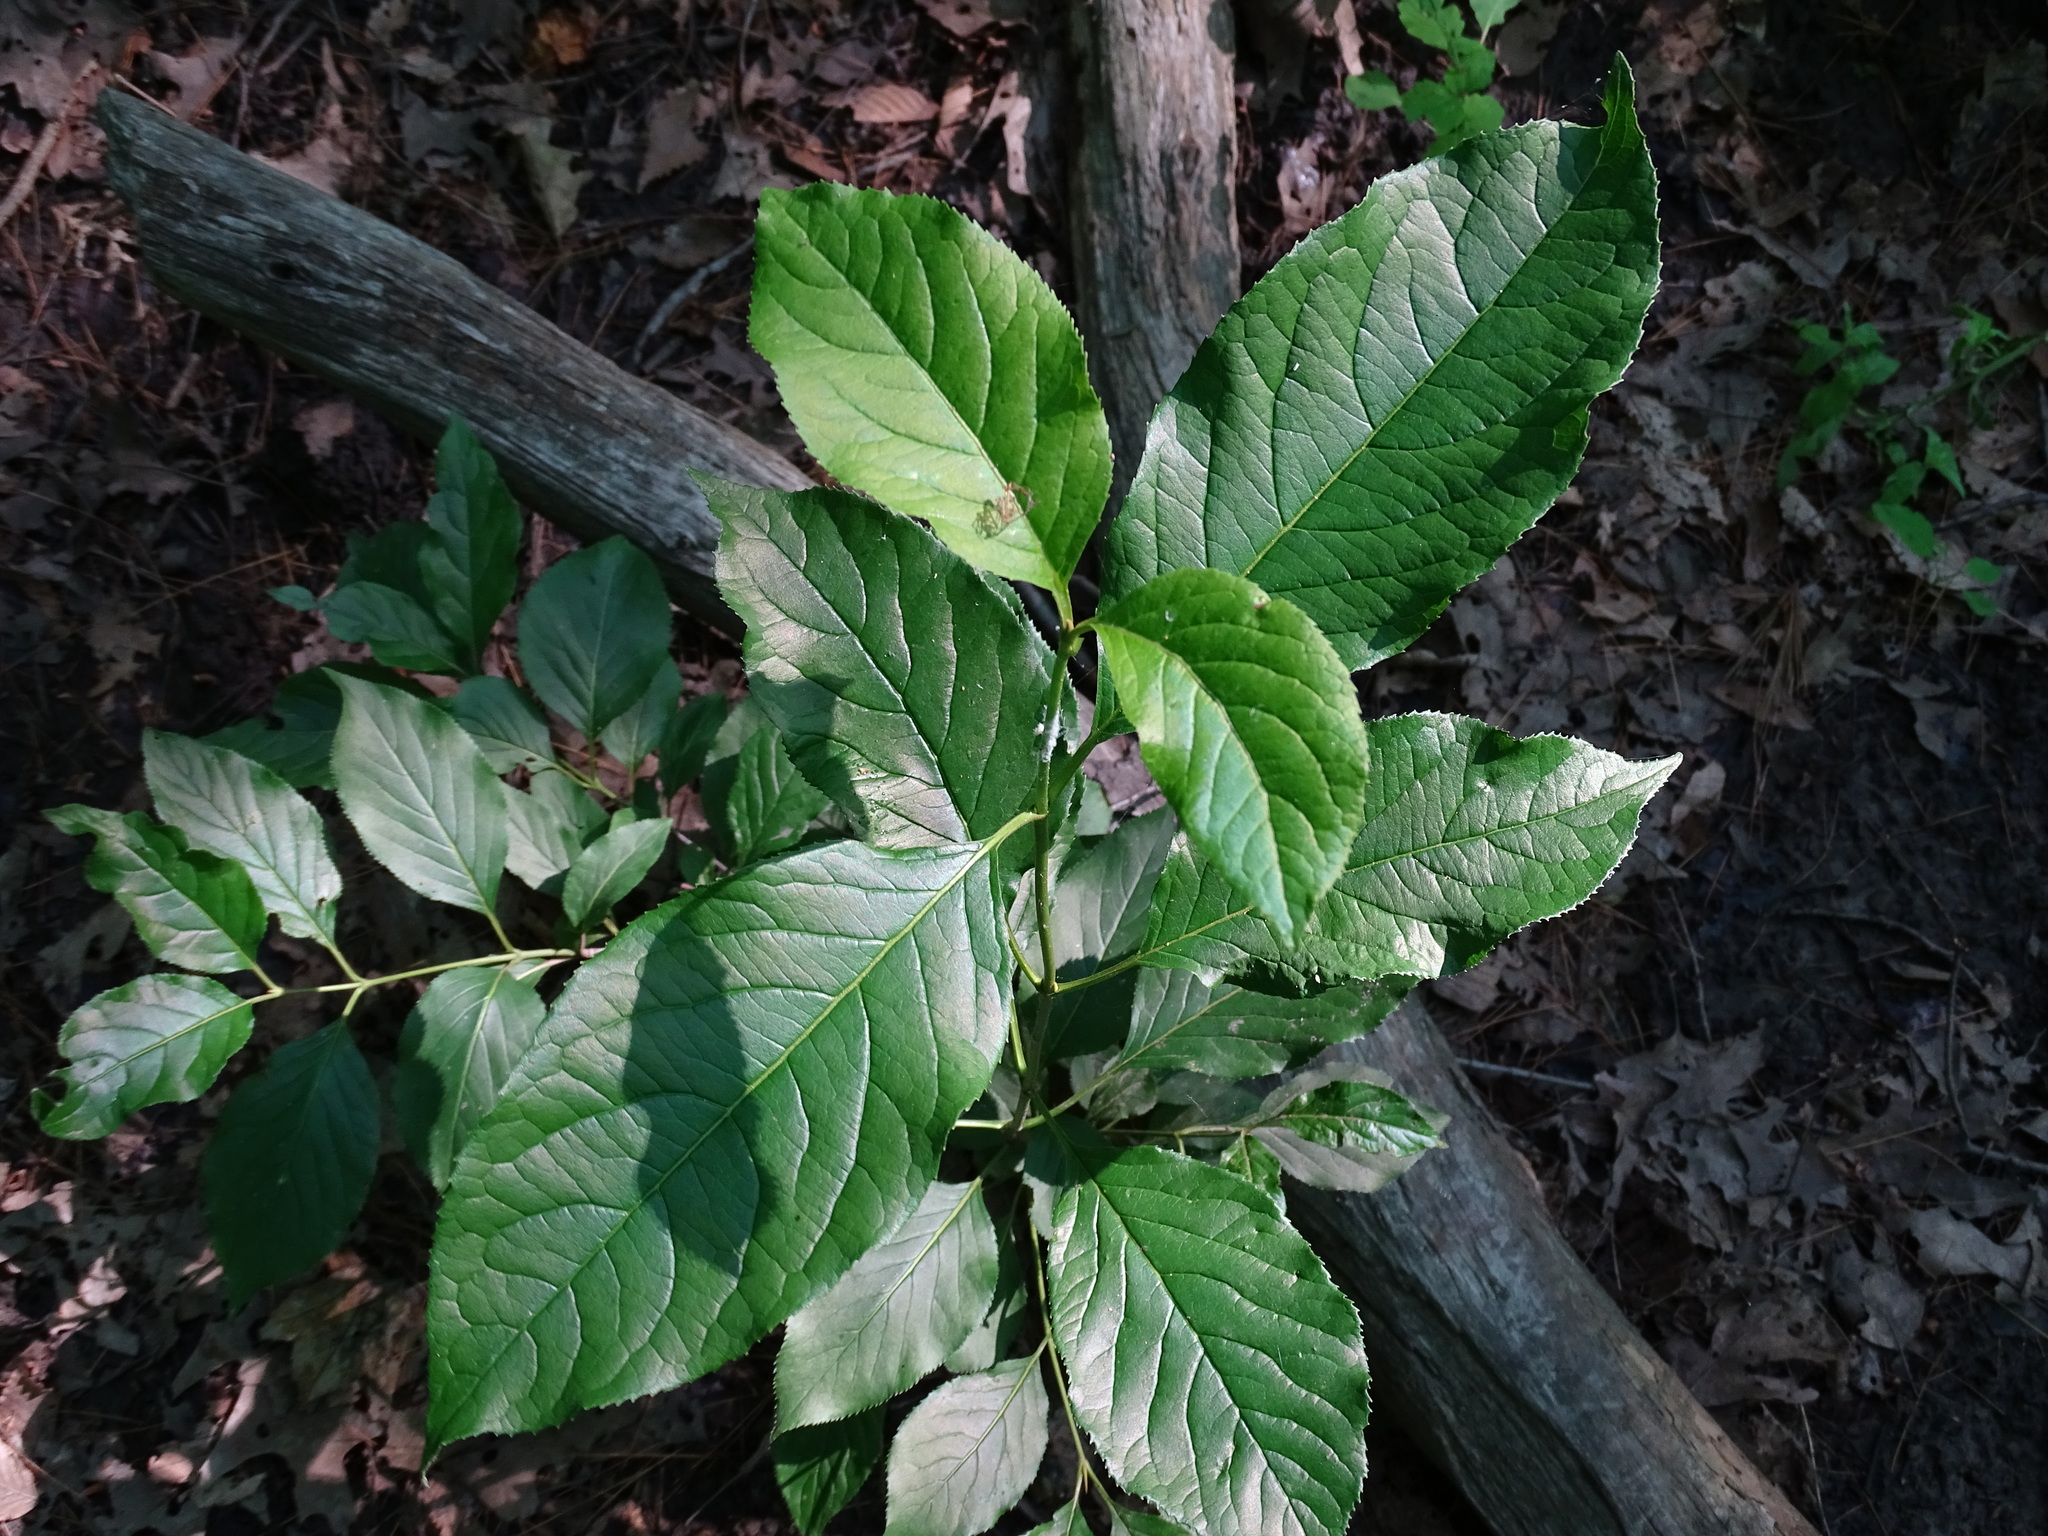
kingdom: Plantae
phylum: Tracheophyta
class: Magnoliopsida
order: Celastrales
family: Celastraceae
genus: Euonymus
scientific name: Euonymus europaeus
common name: Spindle
